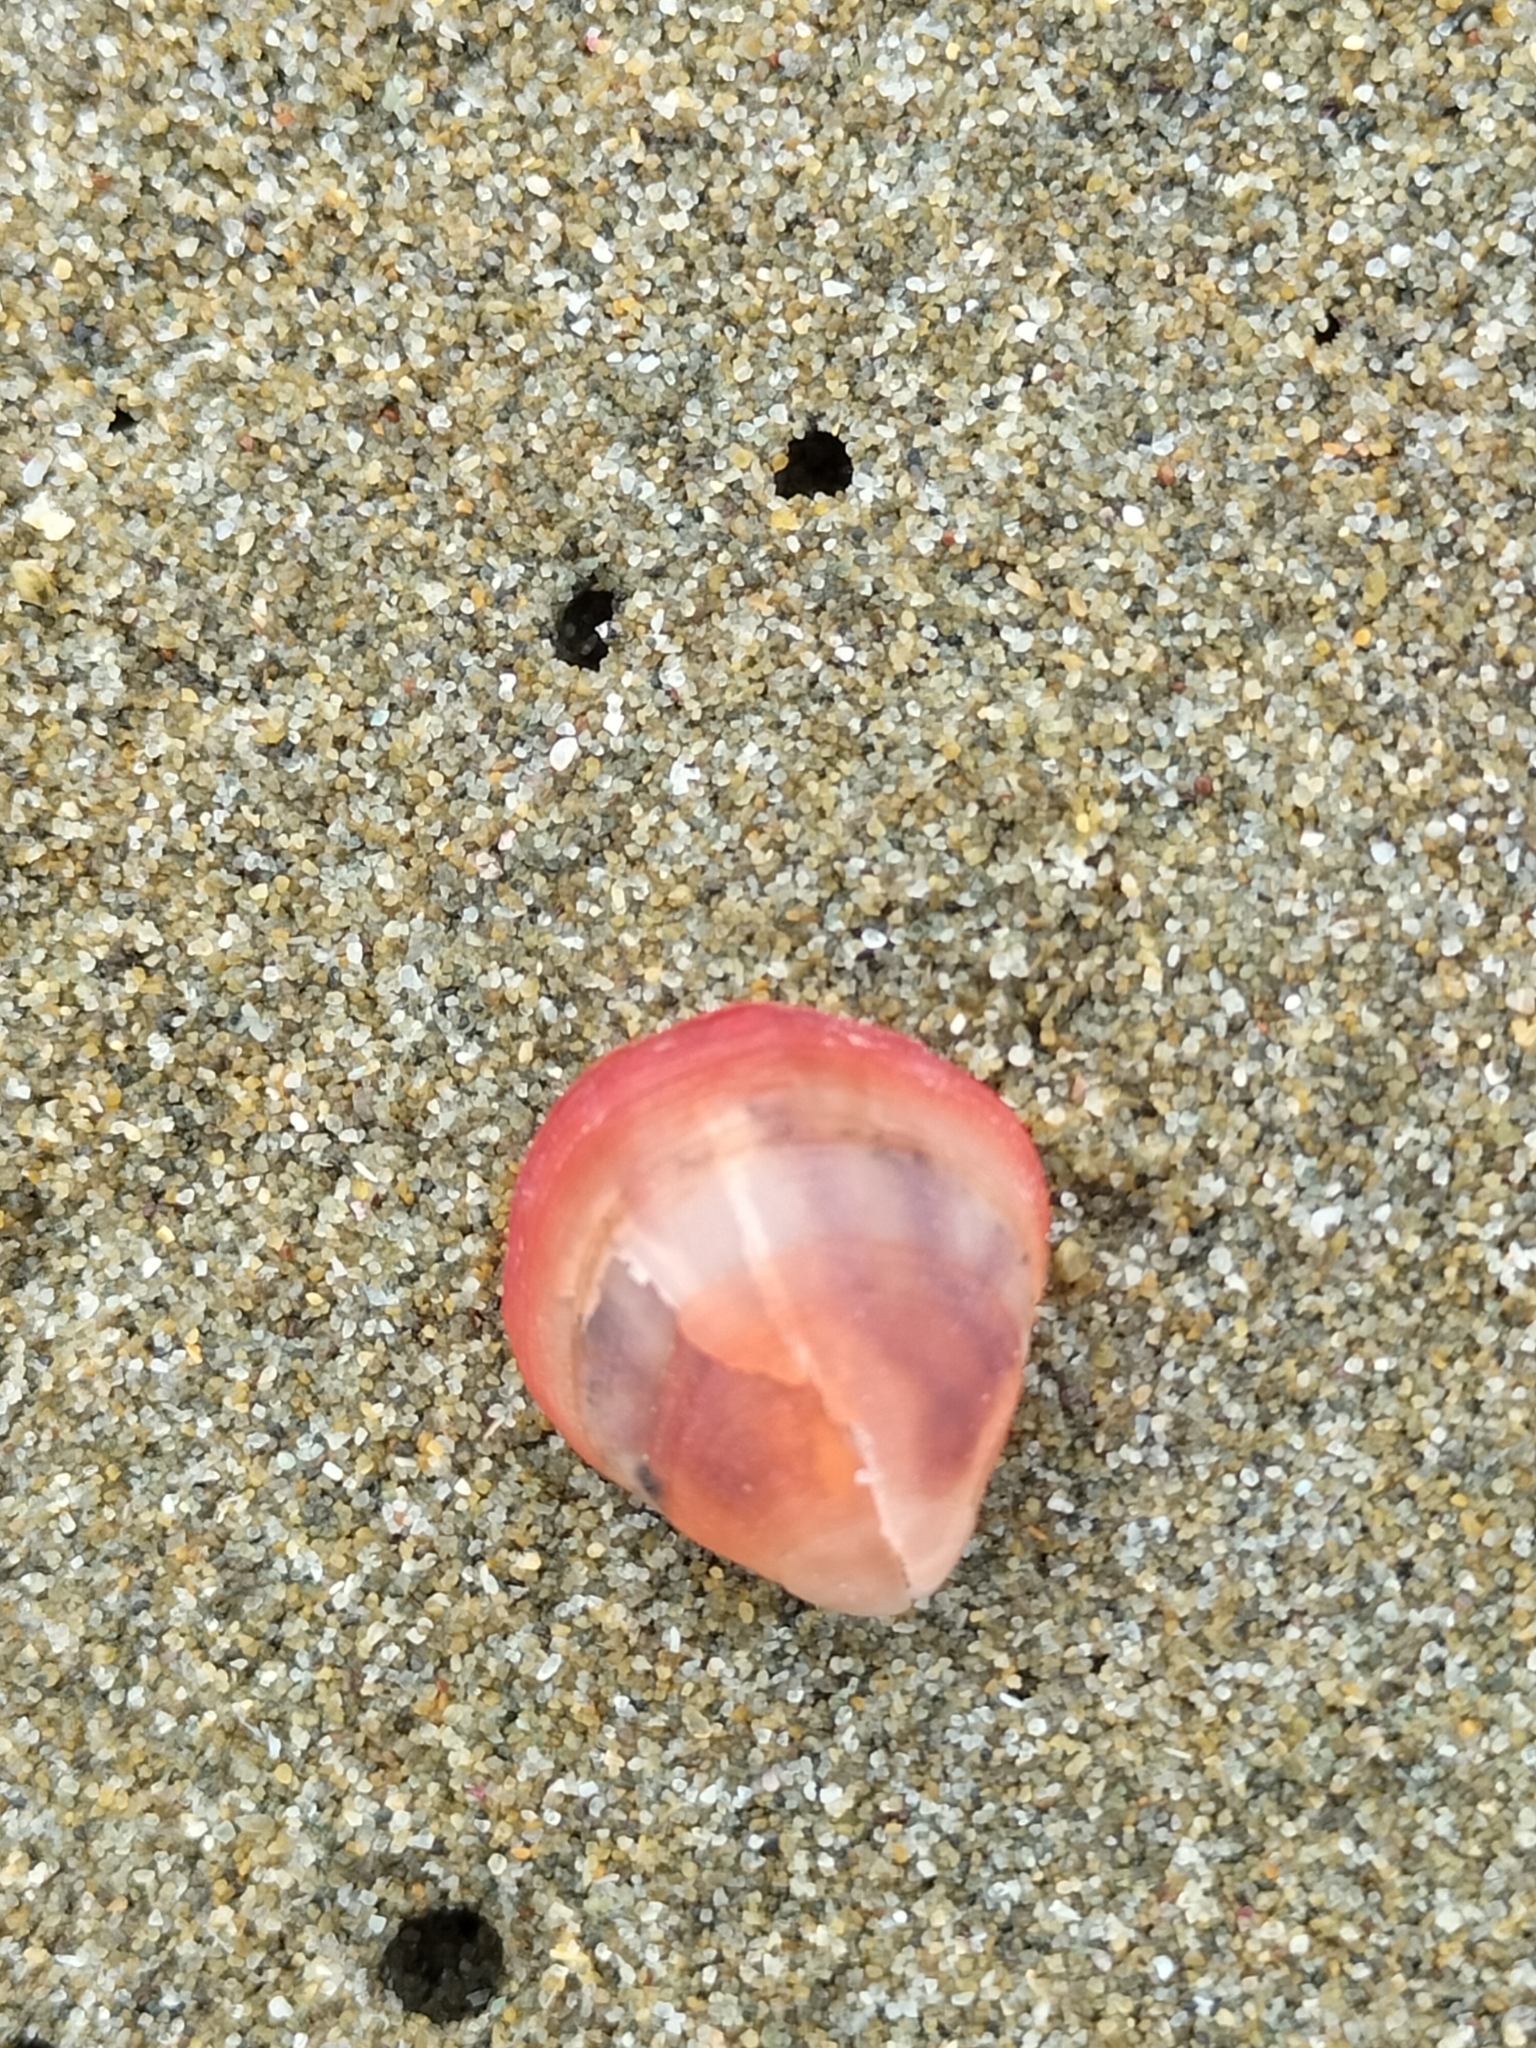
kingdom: Animalia
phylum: Brachiopoda
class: Rhynchonellata
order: Terebratulida
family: Terebratellidae
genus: Calloria
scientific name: Calloria inconspicua
